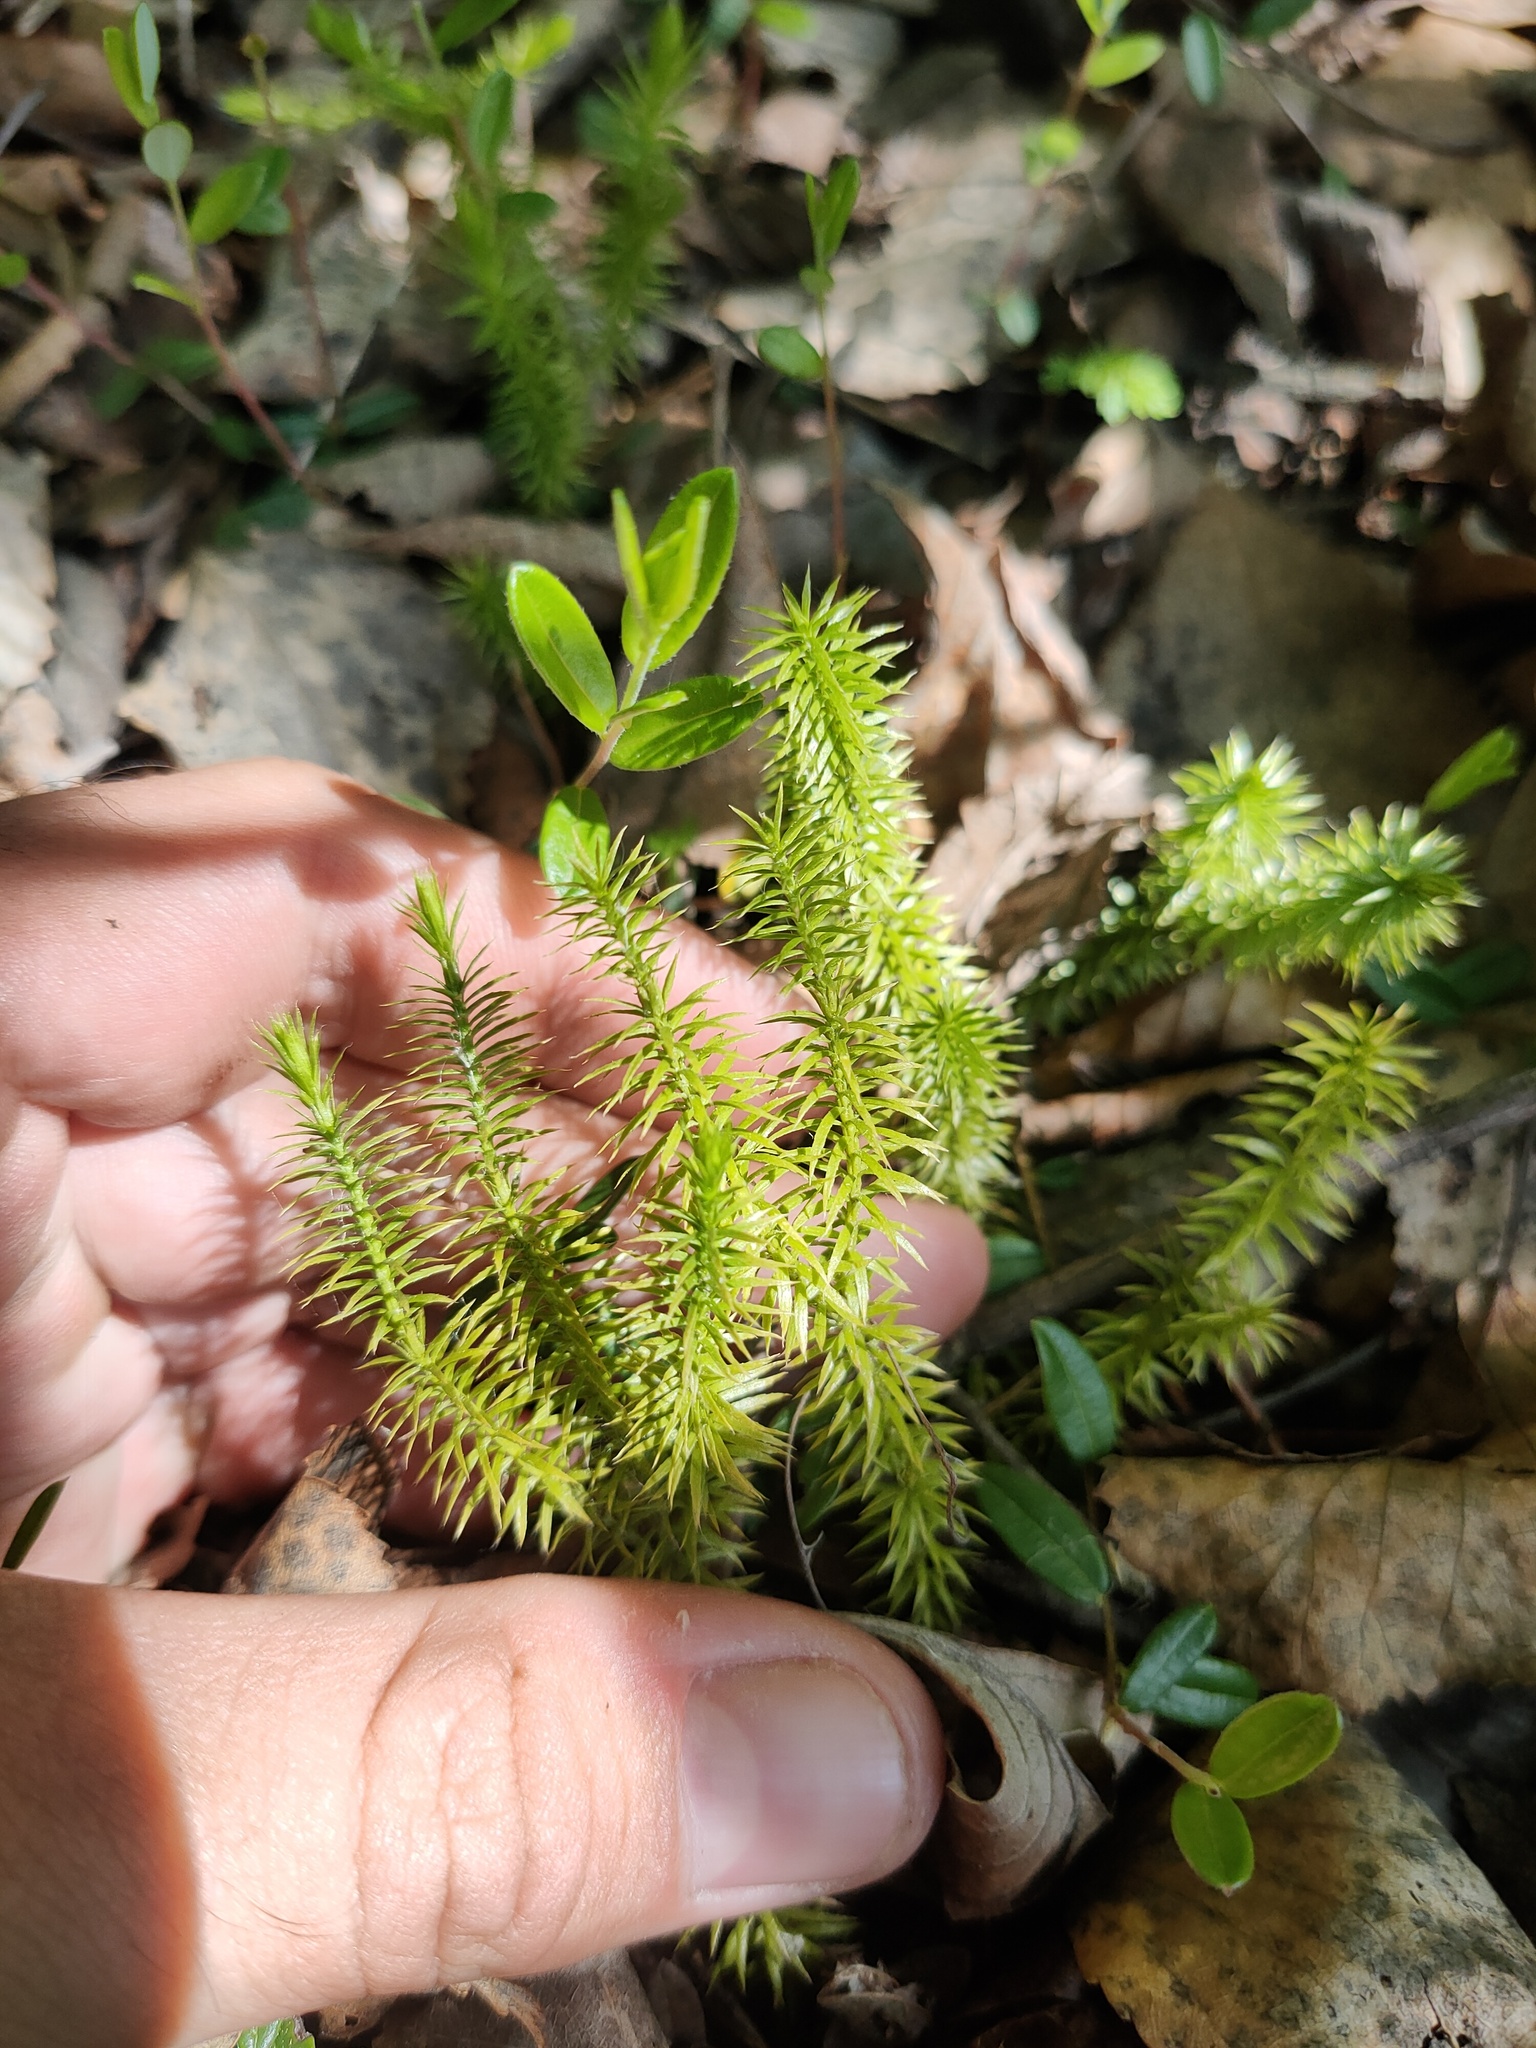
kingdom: Plantae
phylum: Tracheophyta
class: Lycopodiopsida
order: Lycopodiales
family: Lycopodiaceae
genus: Spinulum
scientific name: Spinulum annotinum
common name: Interrupted club-moss
